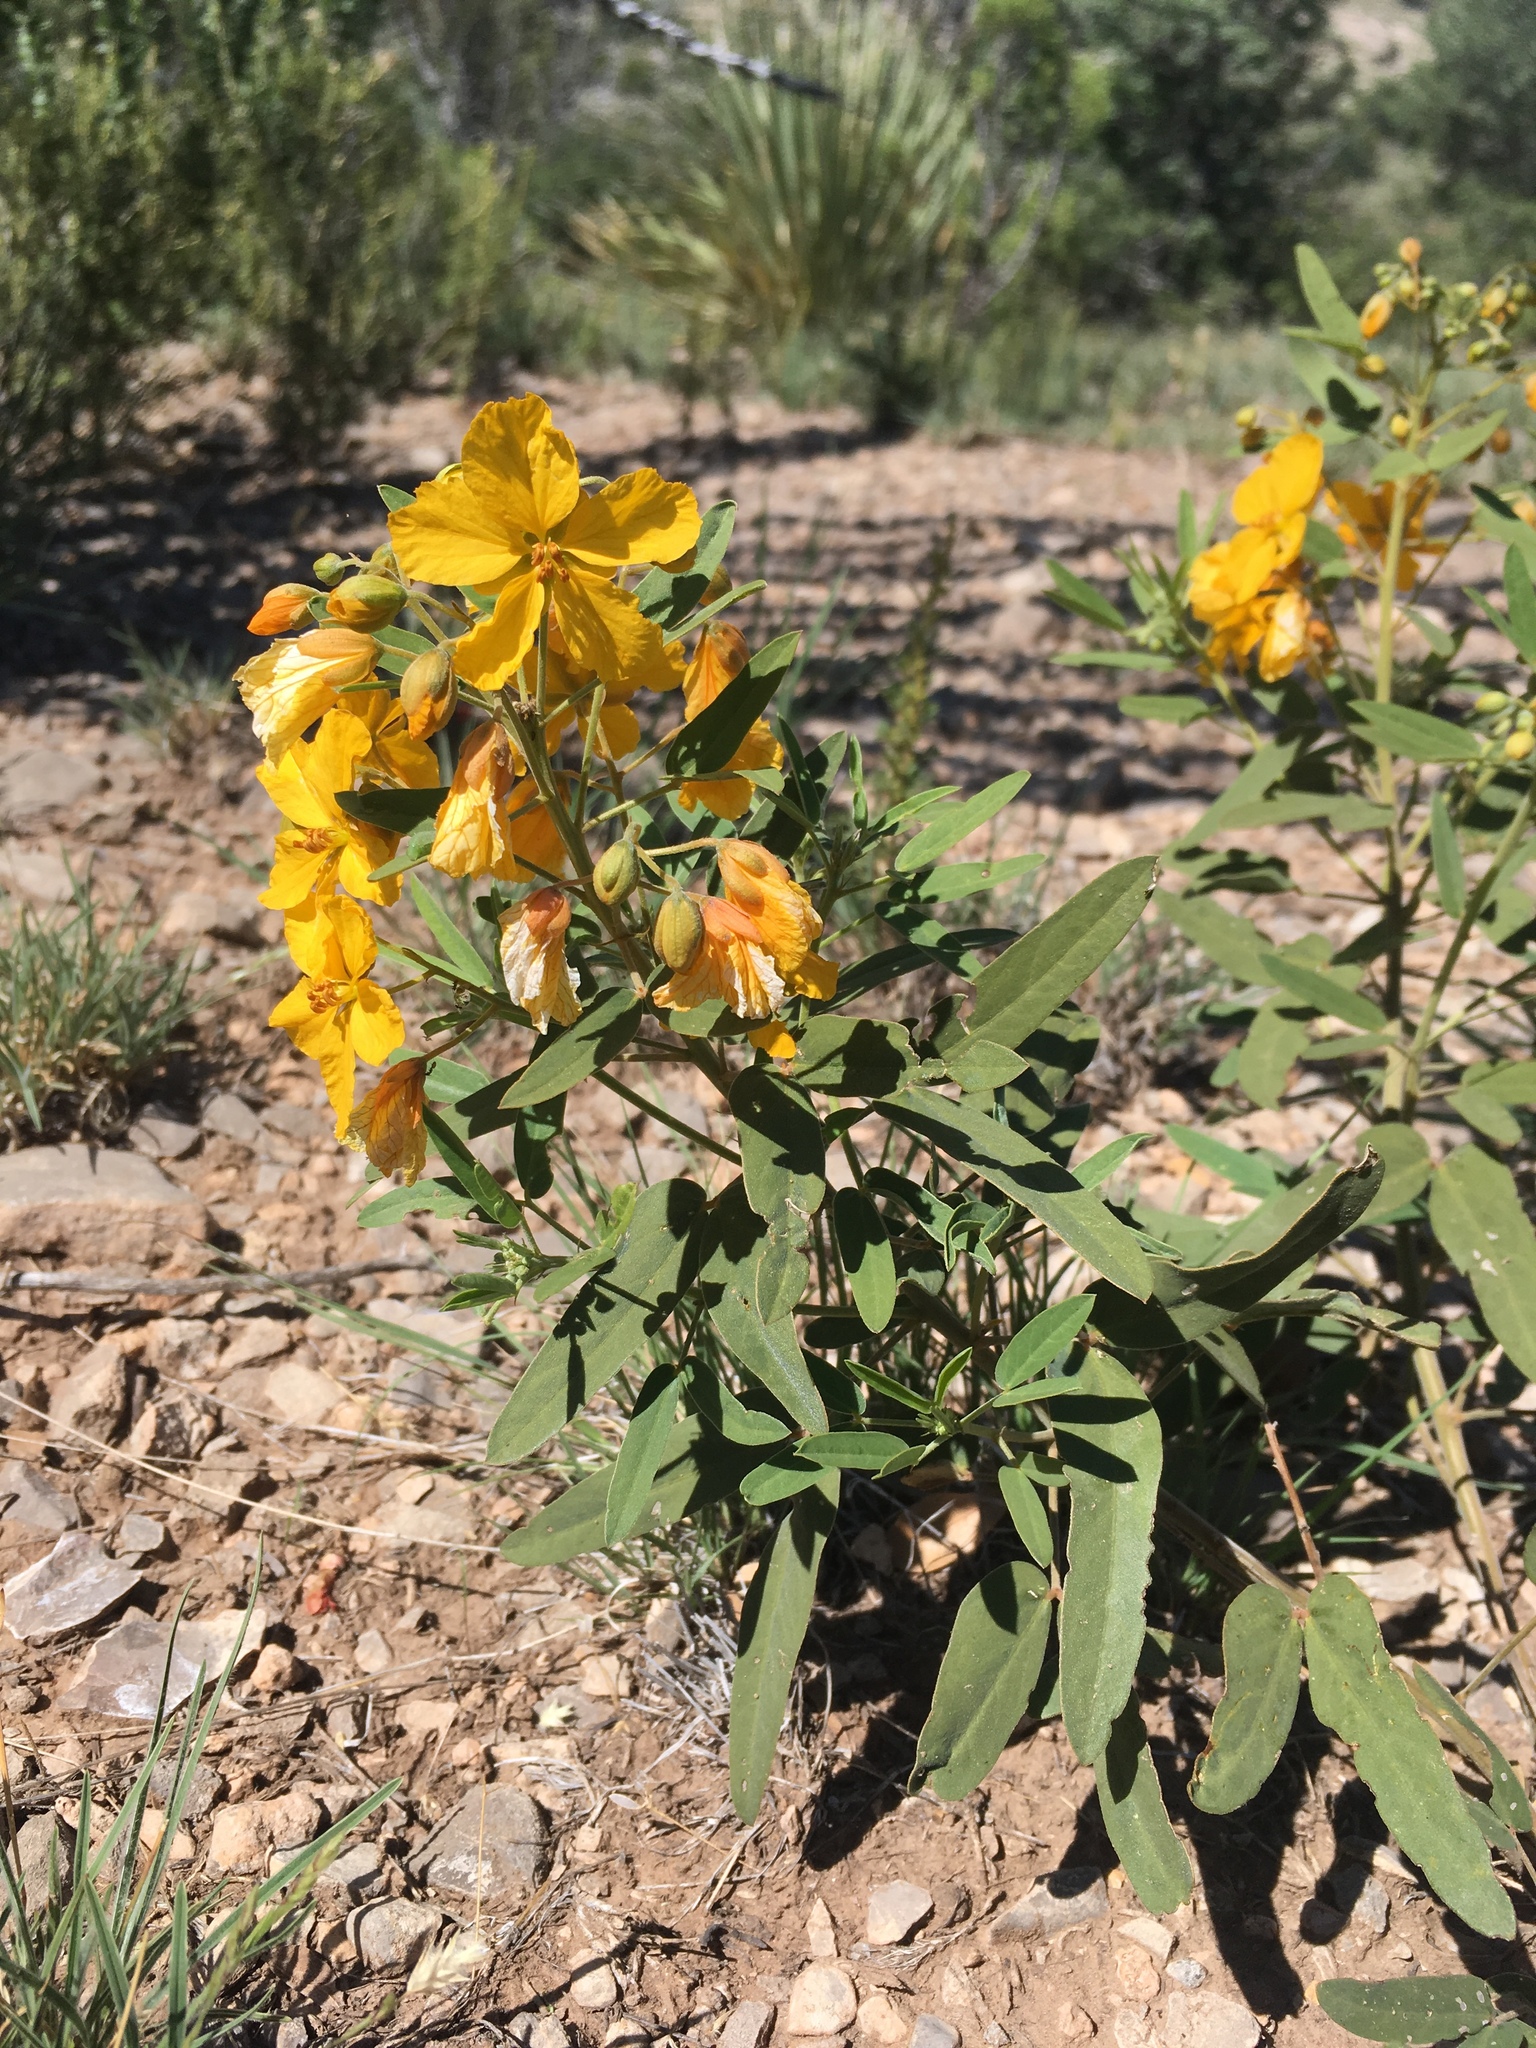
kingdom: Plantae
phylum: Tracheophyta
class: Magnoliopsida
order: Fabales
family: Fabaceae
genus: Senna
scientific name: Senna roemeriana
